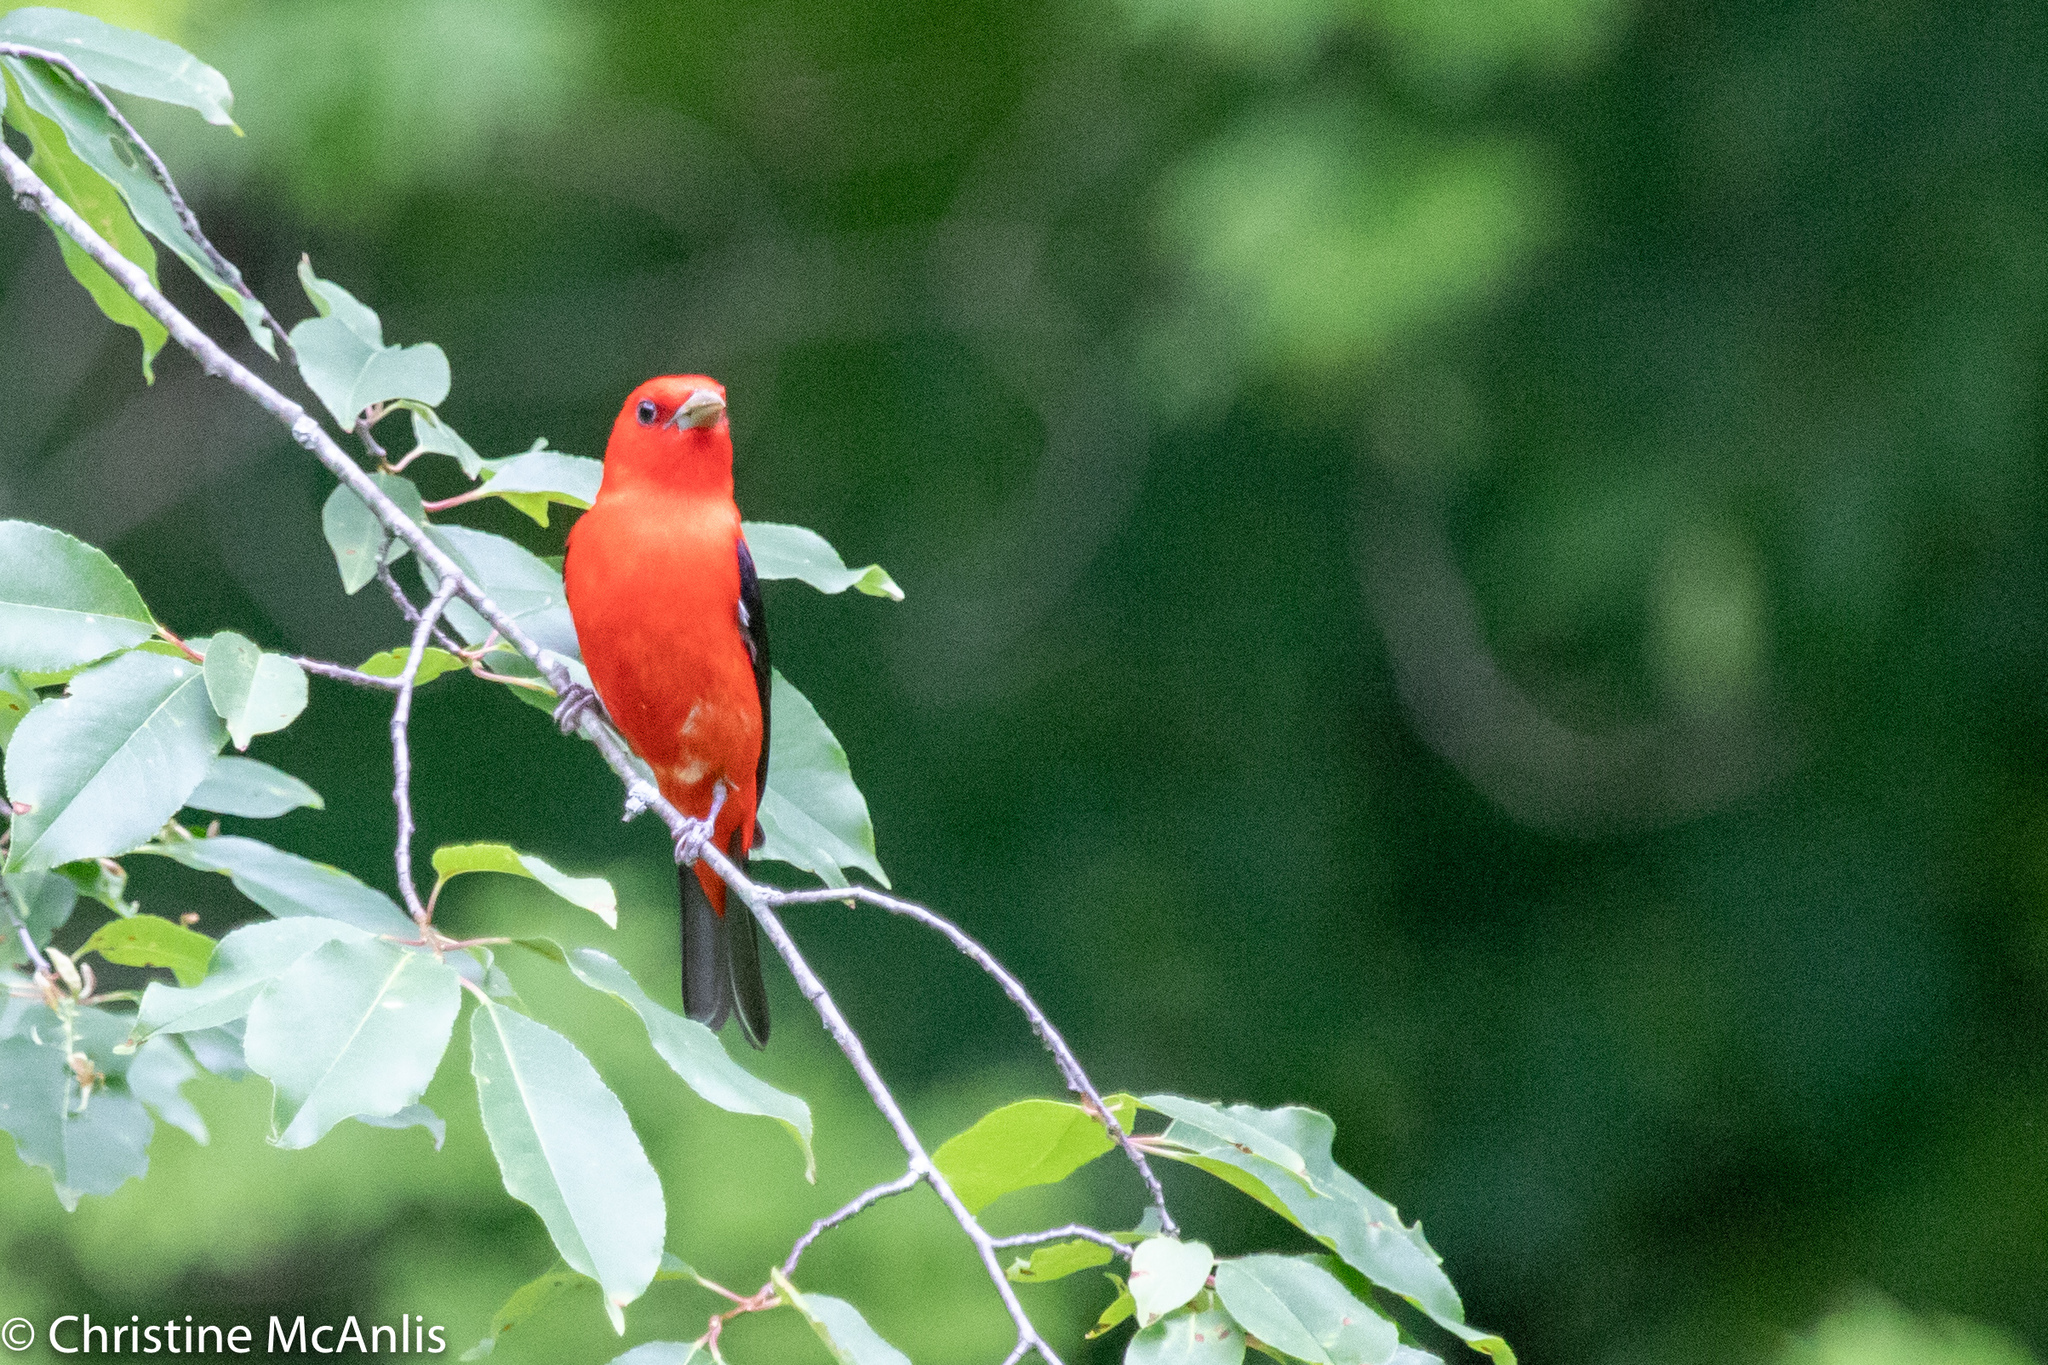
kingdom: Animalia
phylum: Chordata
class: Aves
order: Passeriformes
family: Cardinalidae
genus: Piranga
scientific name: Piranga olivacea
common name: Scarlet tanager
